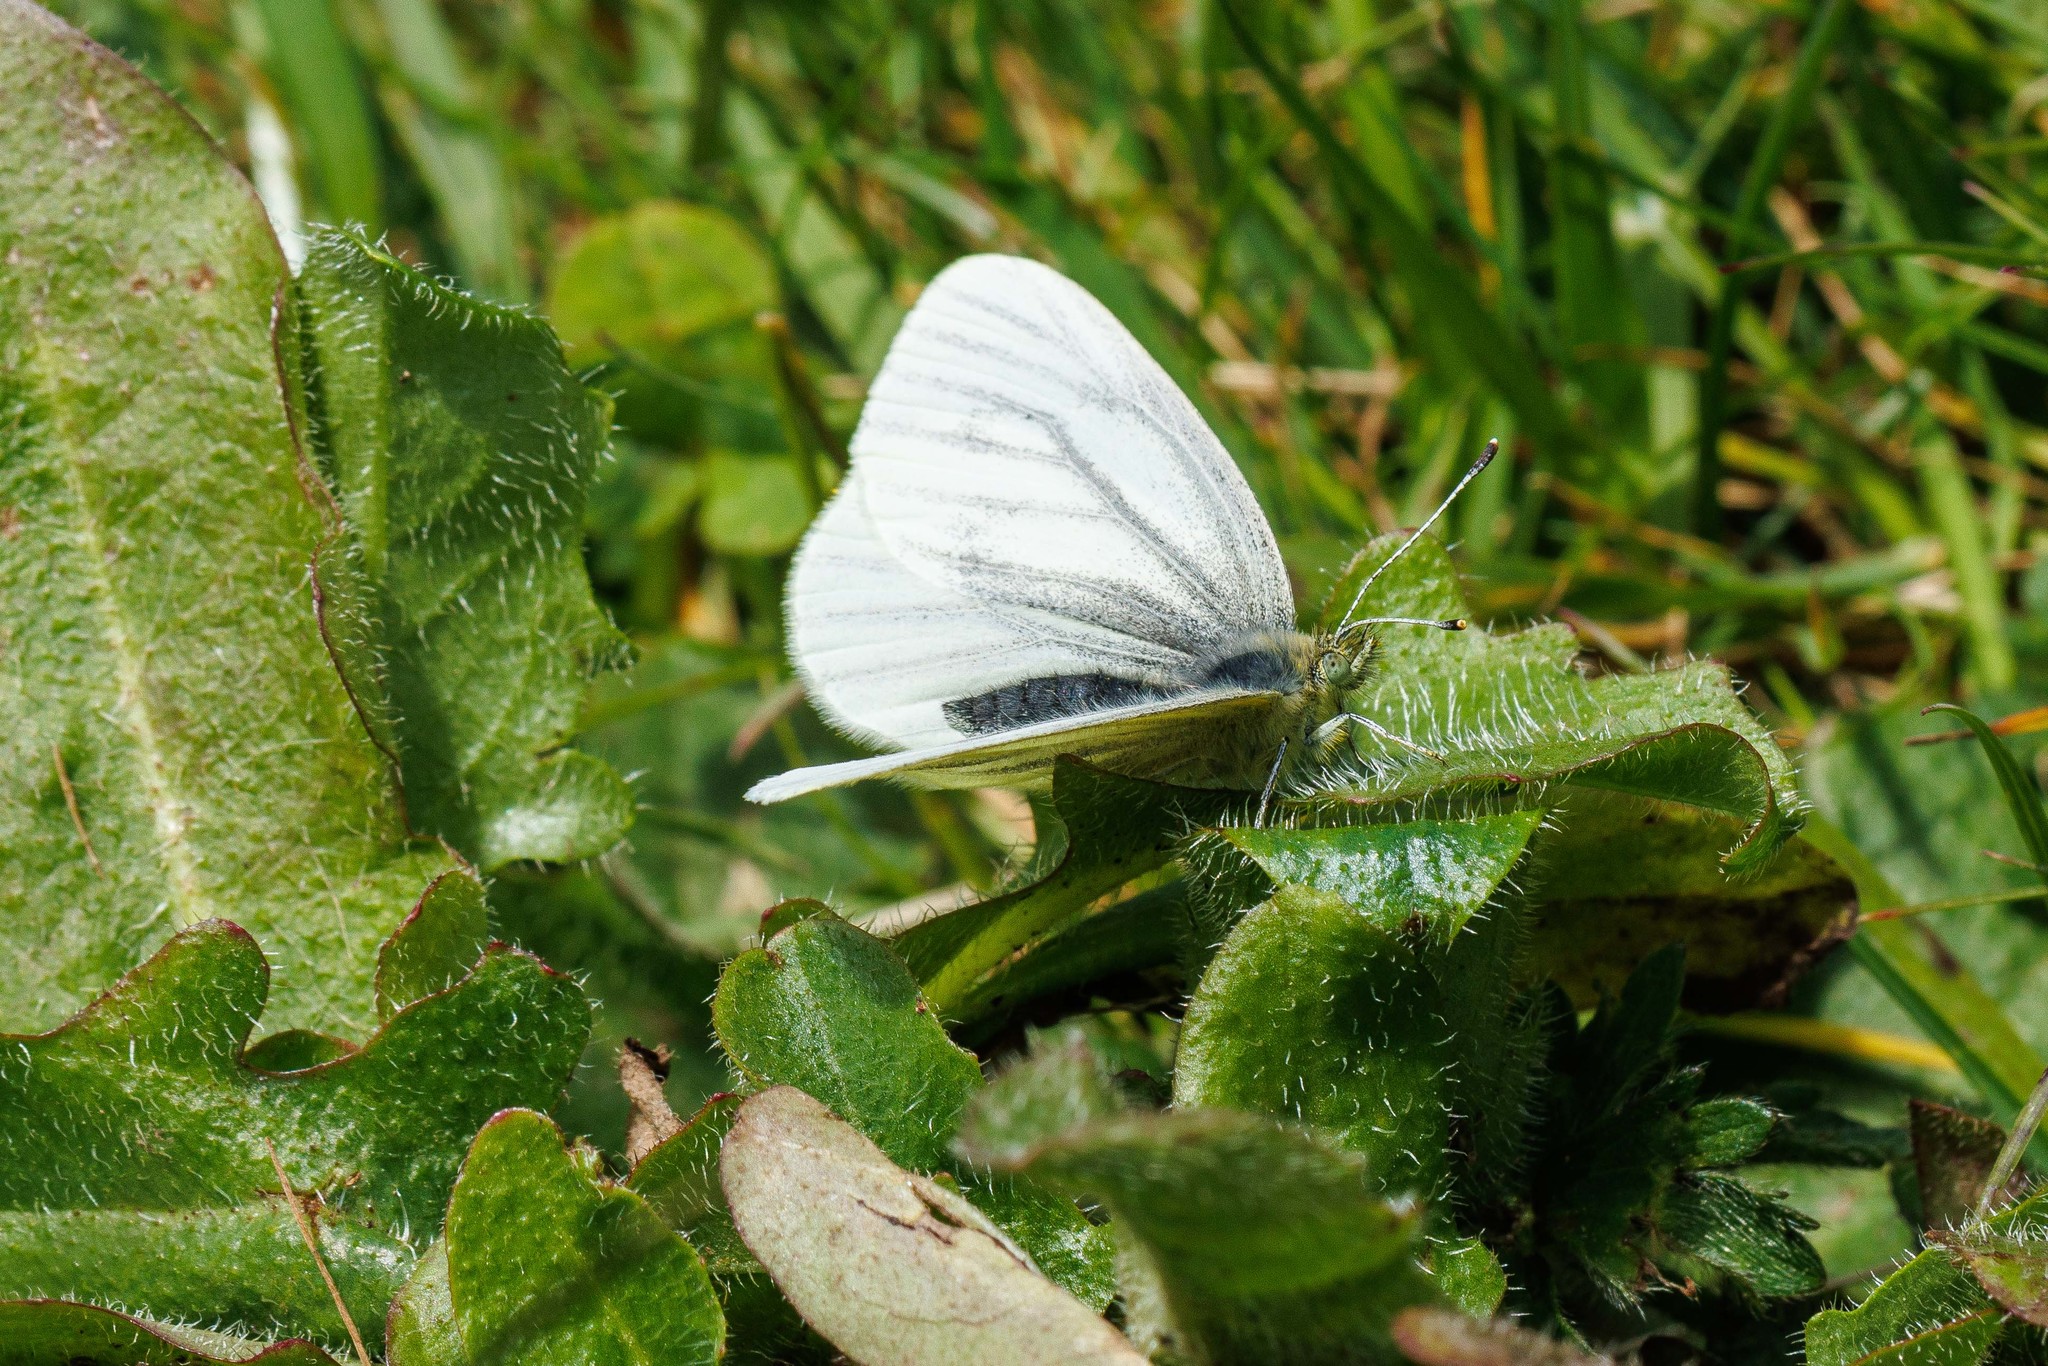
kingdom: Animalia
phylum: Arthropoda
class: Insecta
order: Lepidoptera
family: Pieridae
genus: Pieris
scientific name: Pieris marginalis
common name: Margined white
